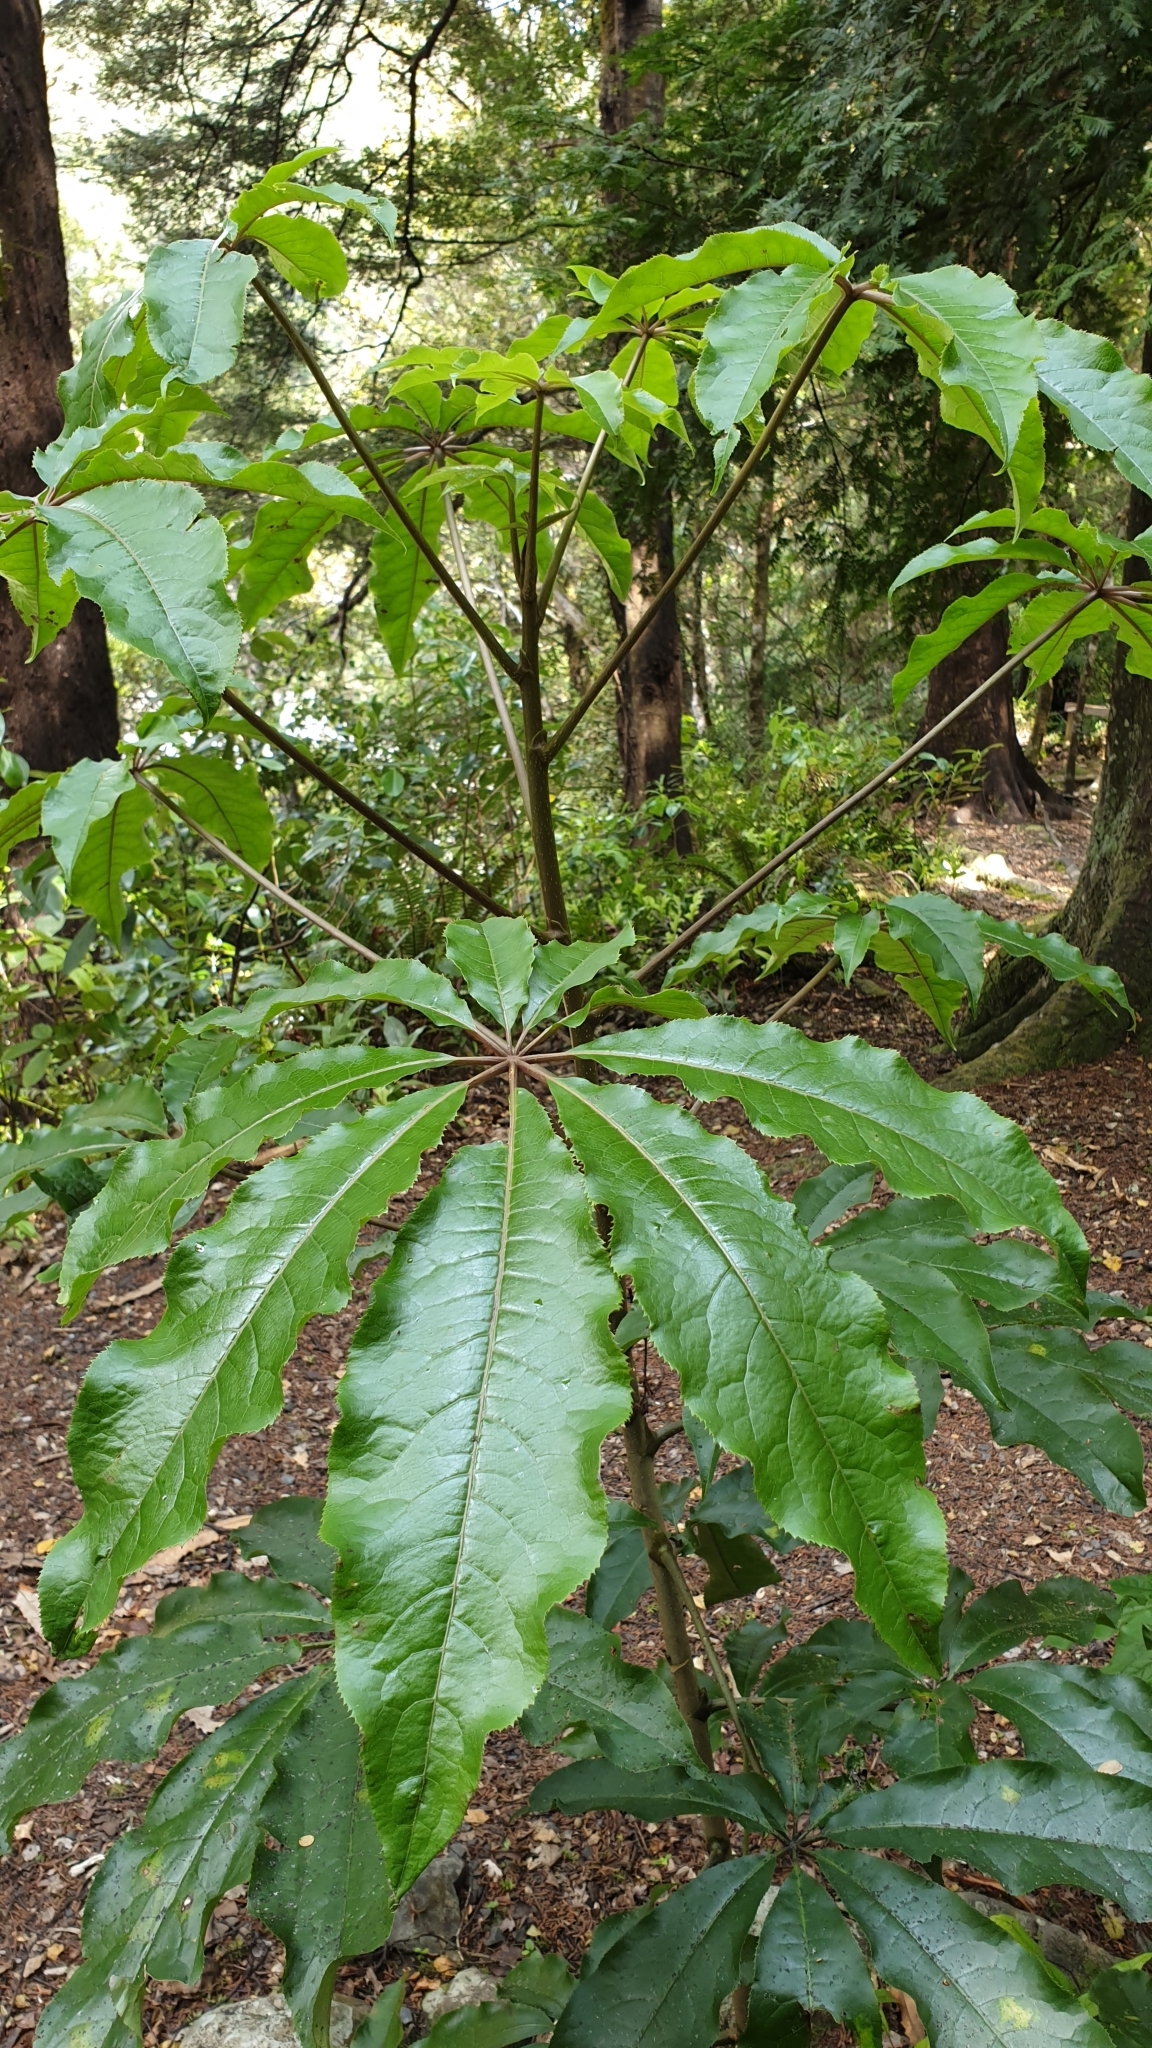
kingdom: Plantae
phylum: Tracheophyta
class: Magnoliopsida
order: Apiales
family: Araliaceae
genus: Schefflera
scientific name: Schefflera digitata
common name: Pate
